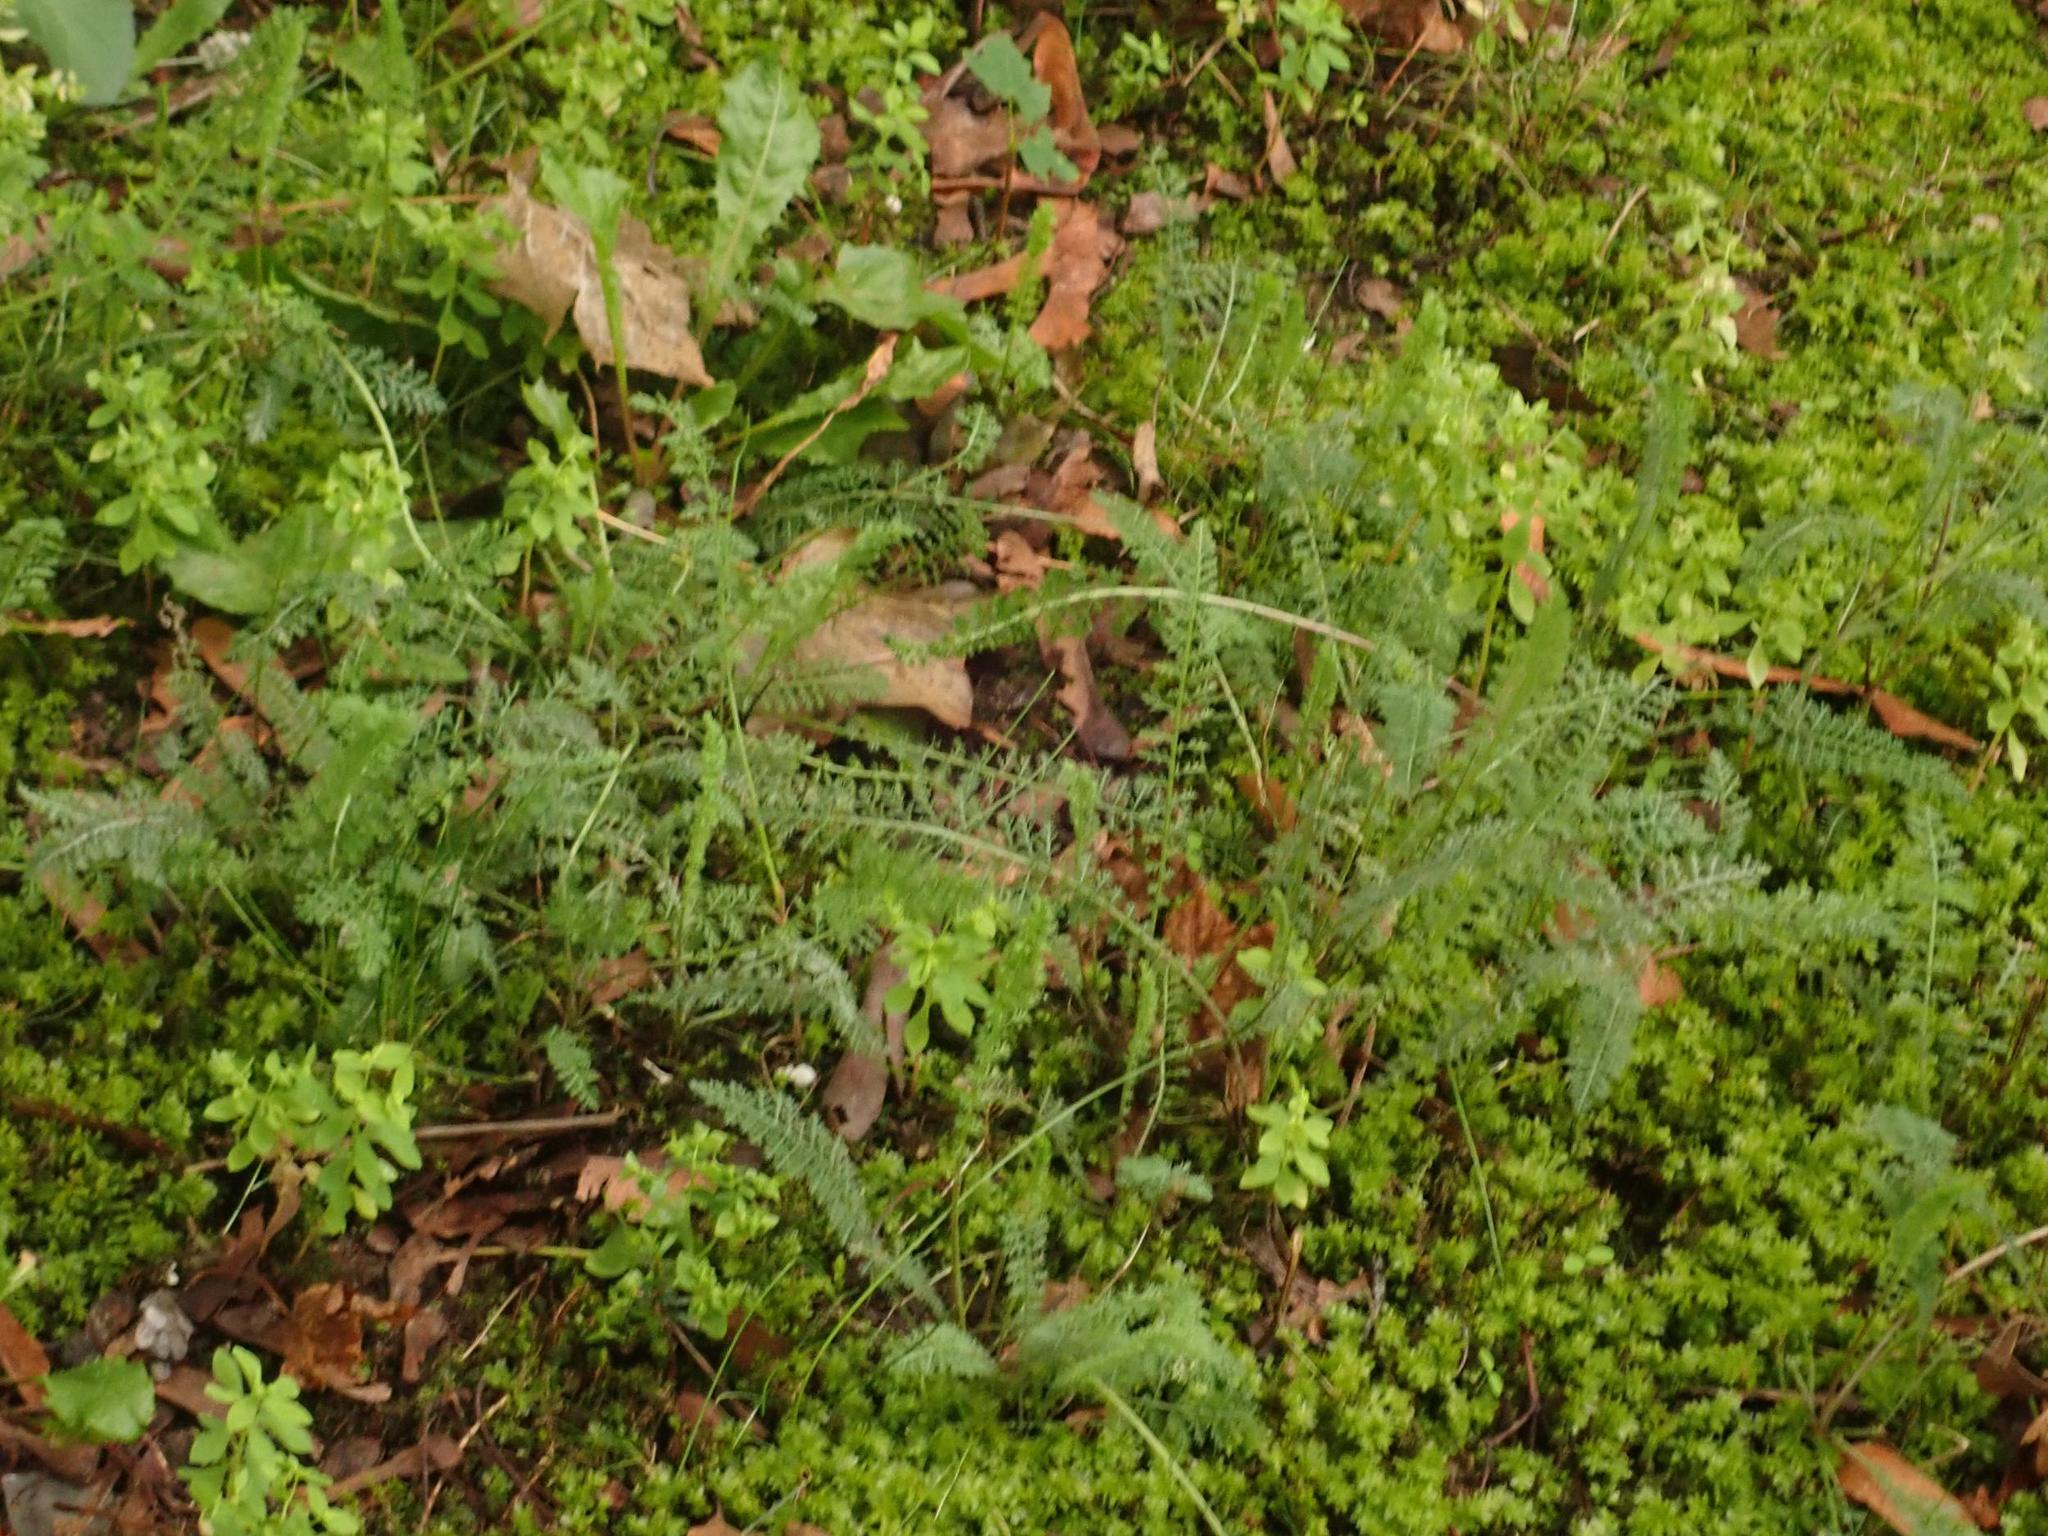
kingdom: Plantae
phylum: Tracheophyta
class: Magnoliopsida
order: Asterales
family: Asteraceae
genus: Achillea
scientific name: Achillea millefolium
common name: Yarrow
